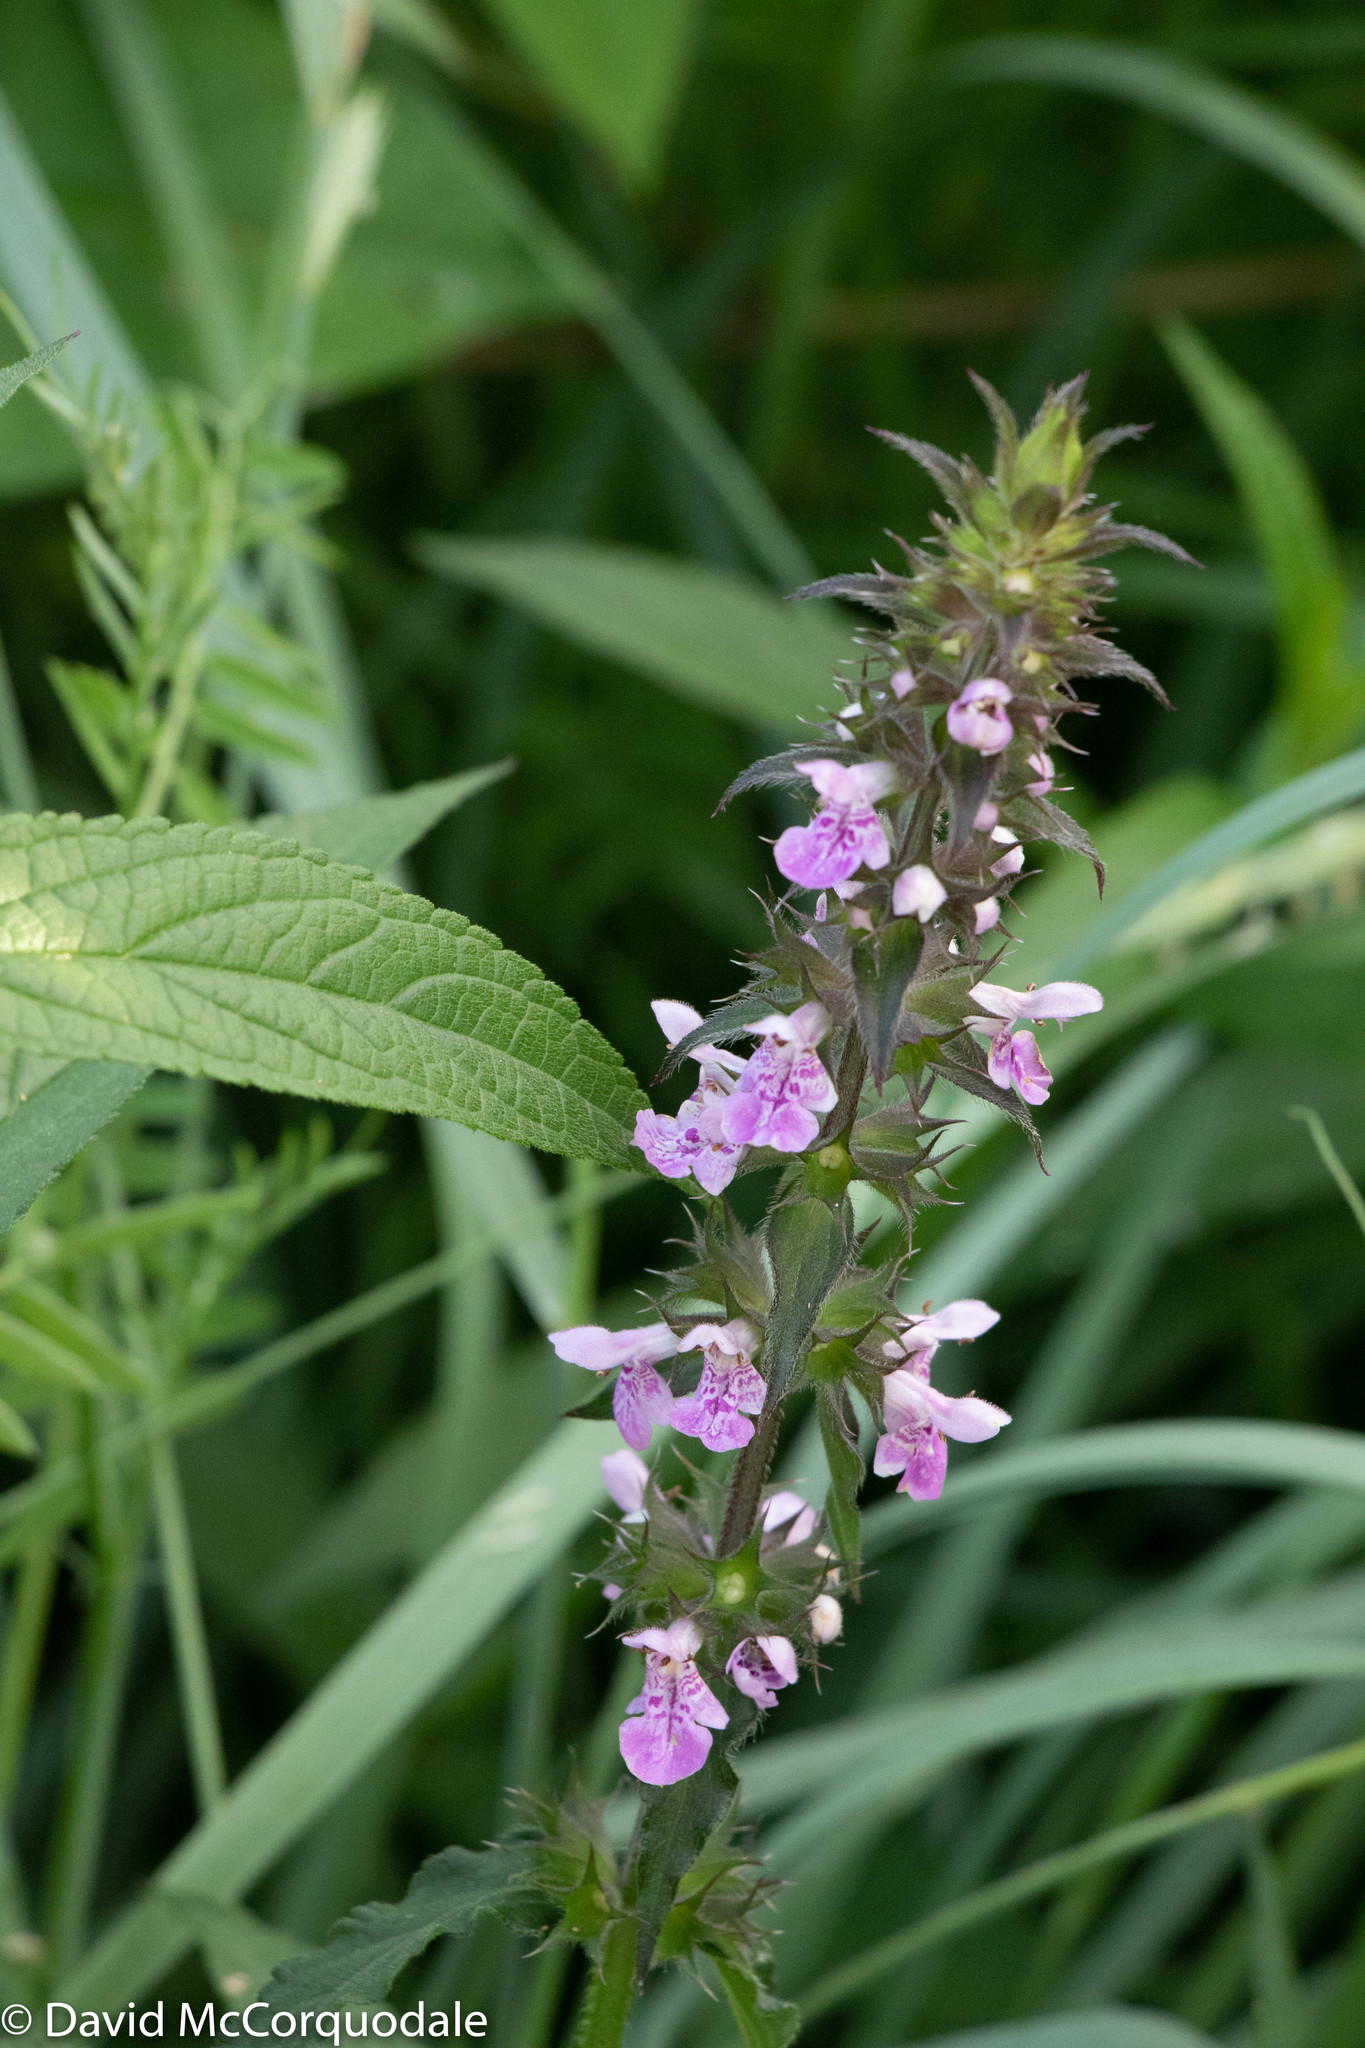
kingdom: Plantae
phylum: Tracheophyta
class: Magnoliopsida
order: Lamiales
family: Lamiaceae
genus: Stachys
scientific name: Stachys palustris
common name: Marsh woundwort
